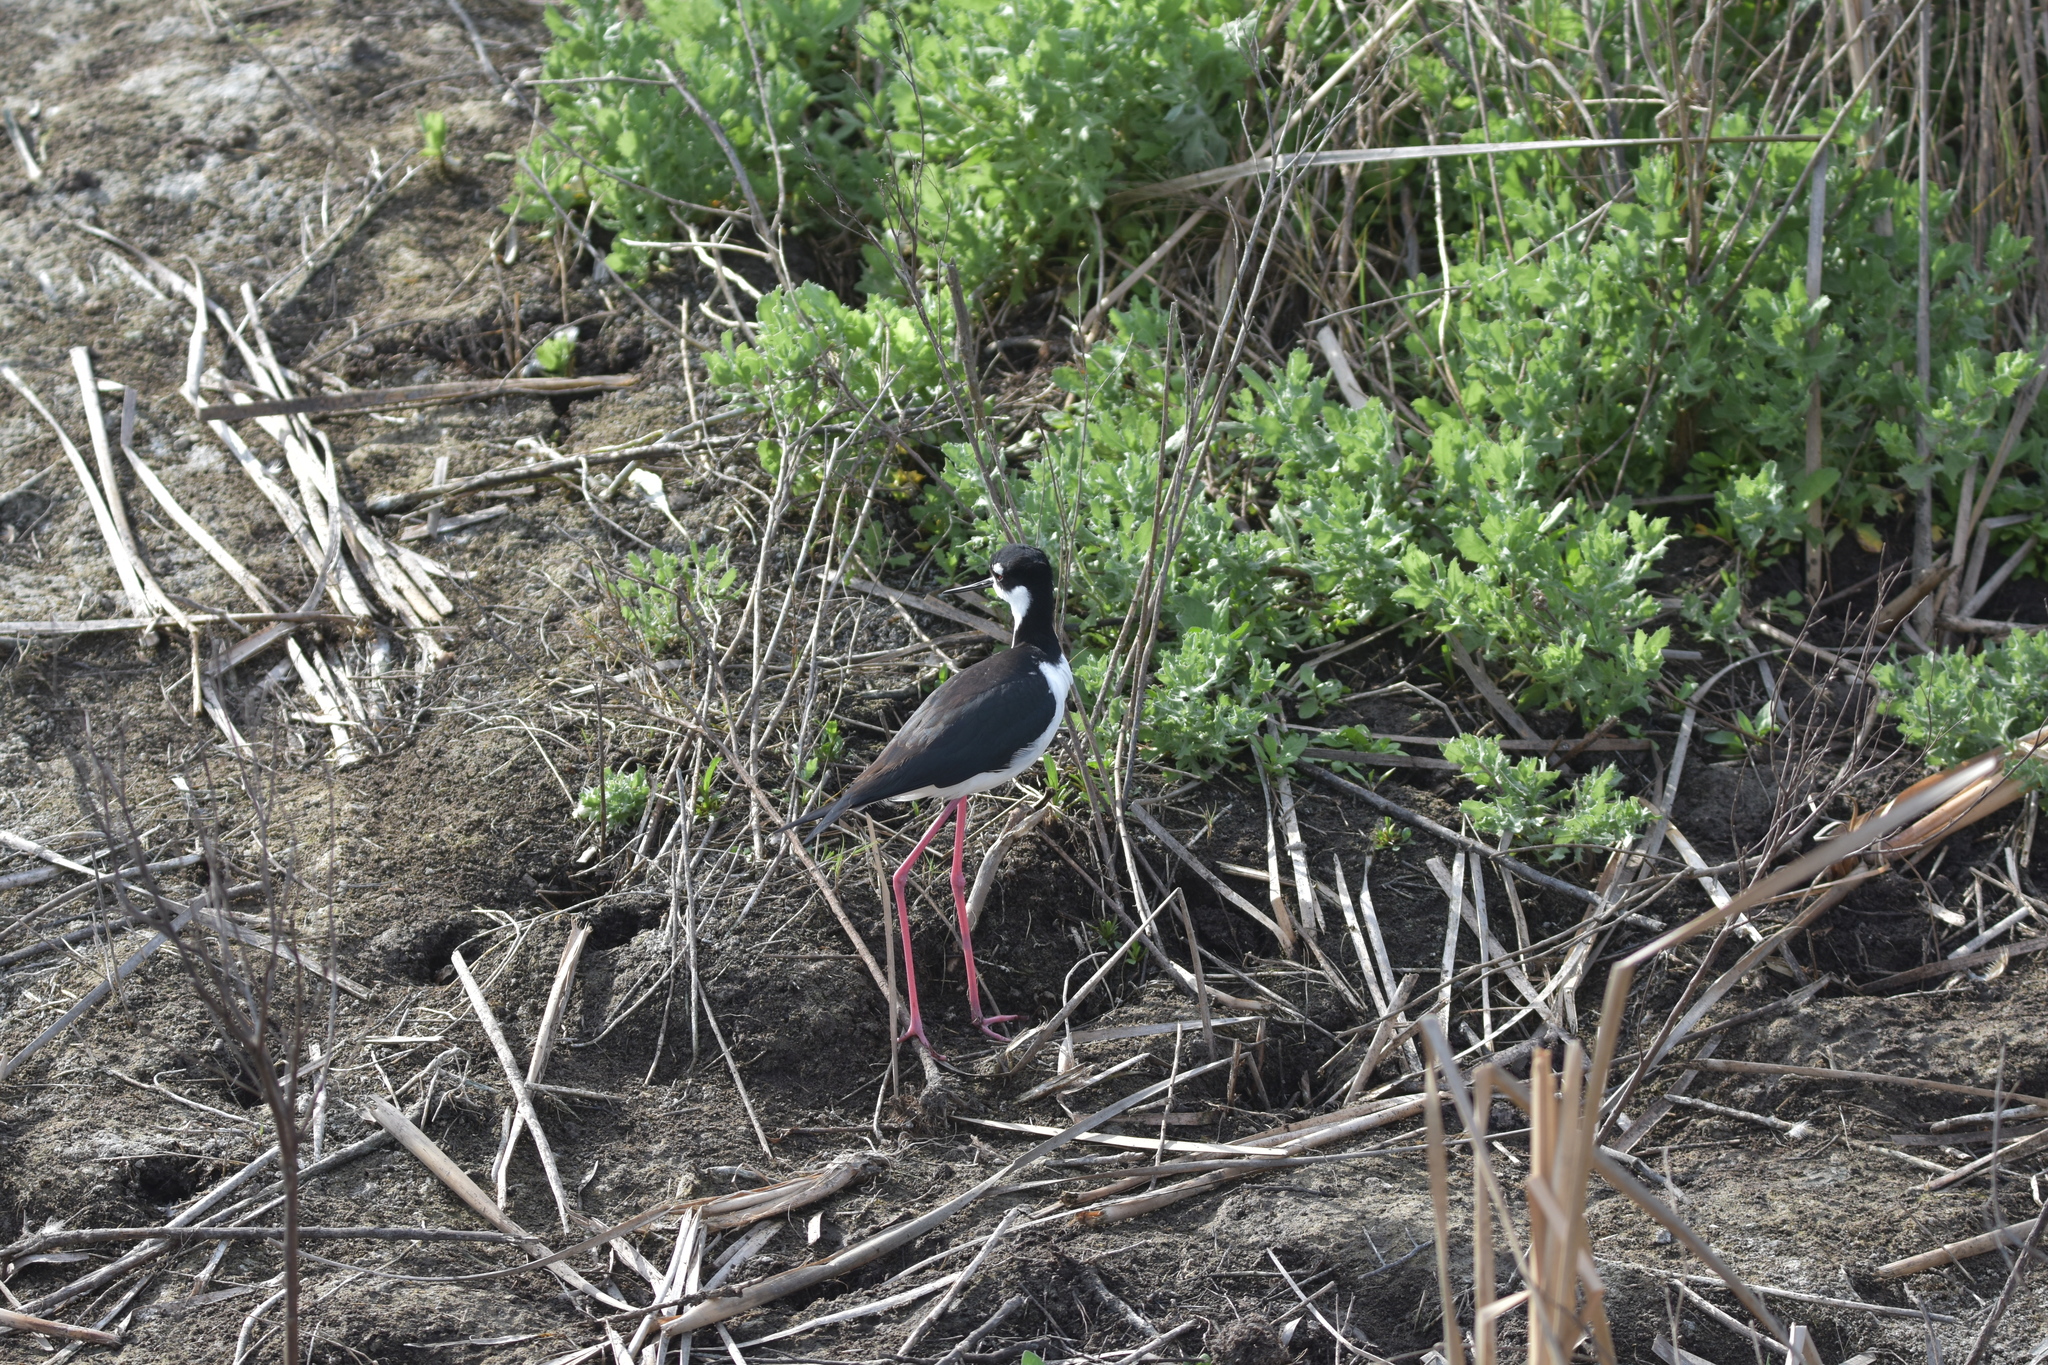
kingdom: Animalia
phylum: Chordata
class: Aves
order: Charadriiformes
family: Recurvirostridae
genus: Himantopus
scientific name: Himantopus mexicanus
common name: Black-necked stilt
